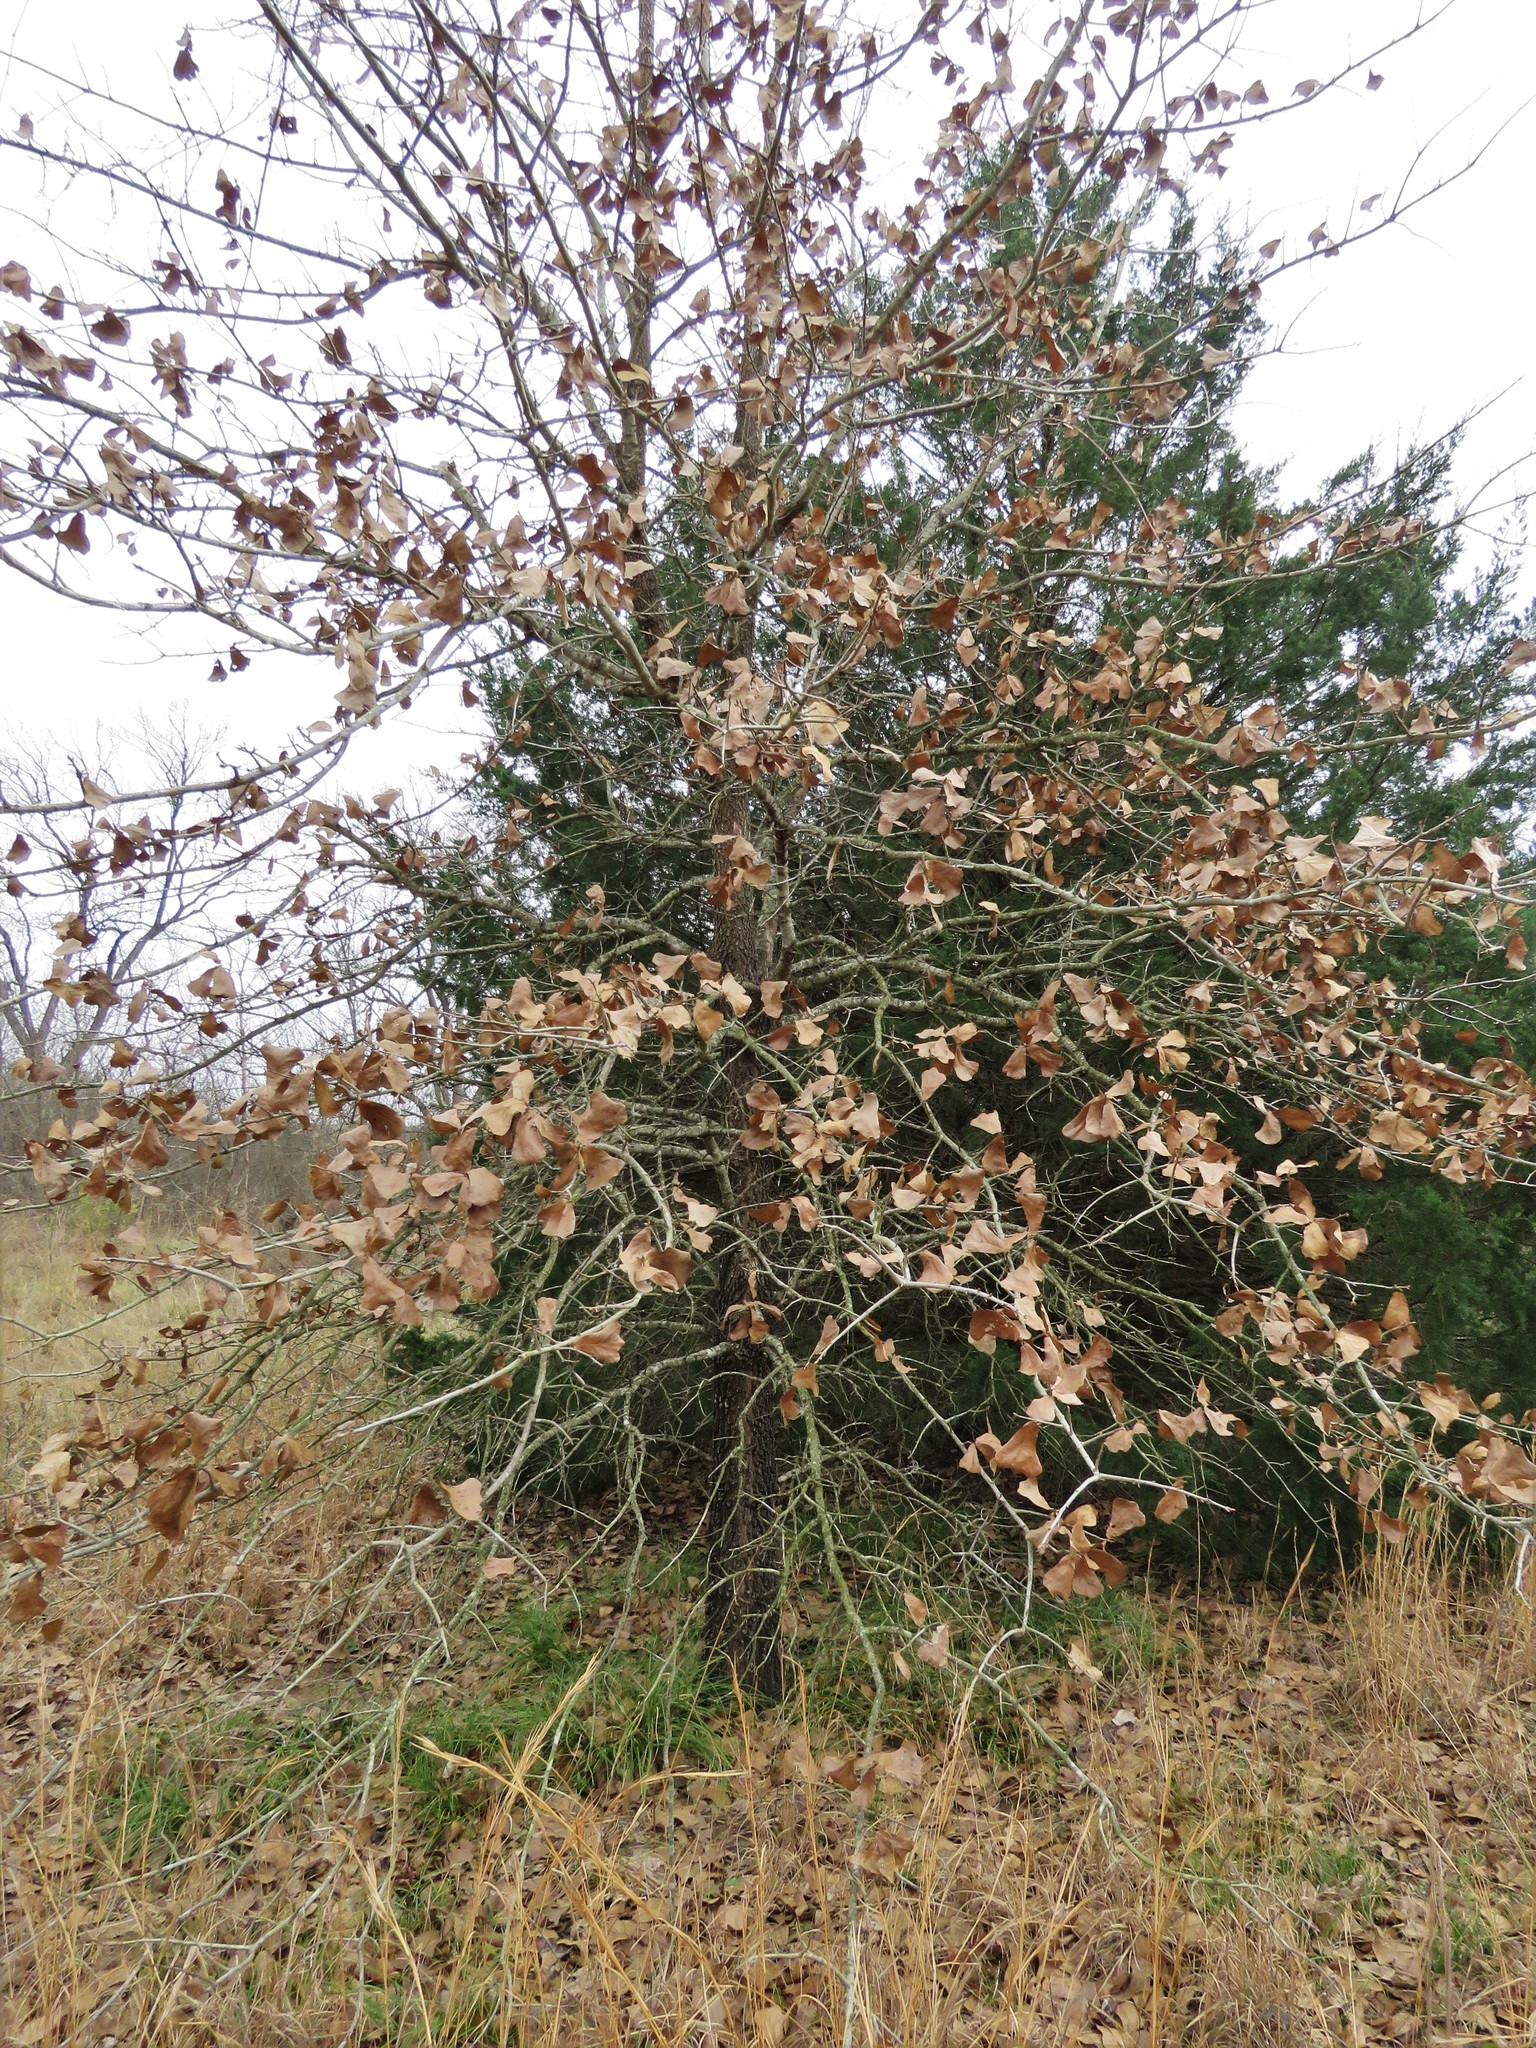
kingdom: Plantae
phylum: Tracheophyta
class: Magnoliopsida
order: Fagales
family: Fagaceae
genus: Quercus
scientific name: Quercus marilandica
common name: Blackjack oak
